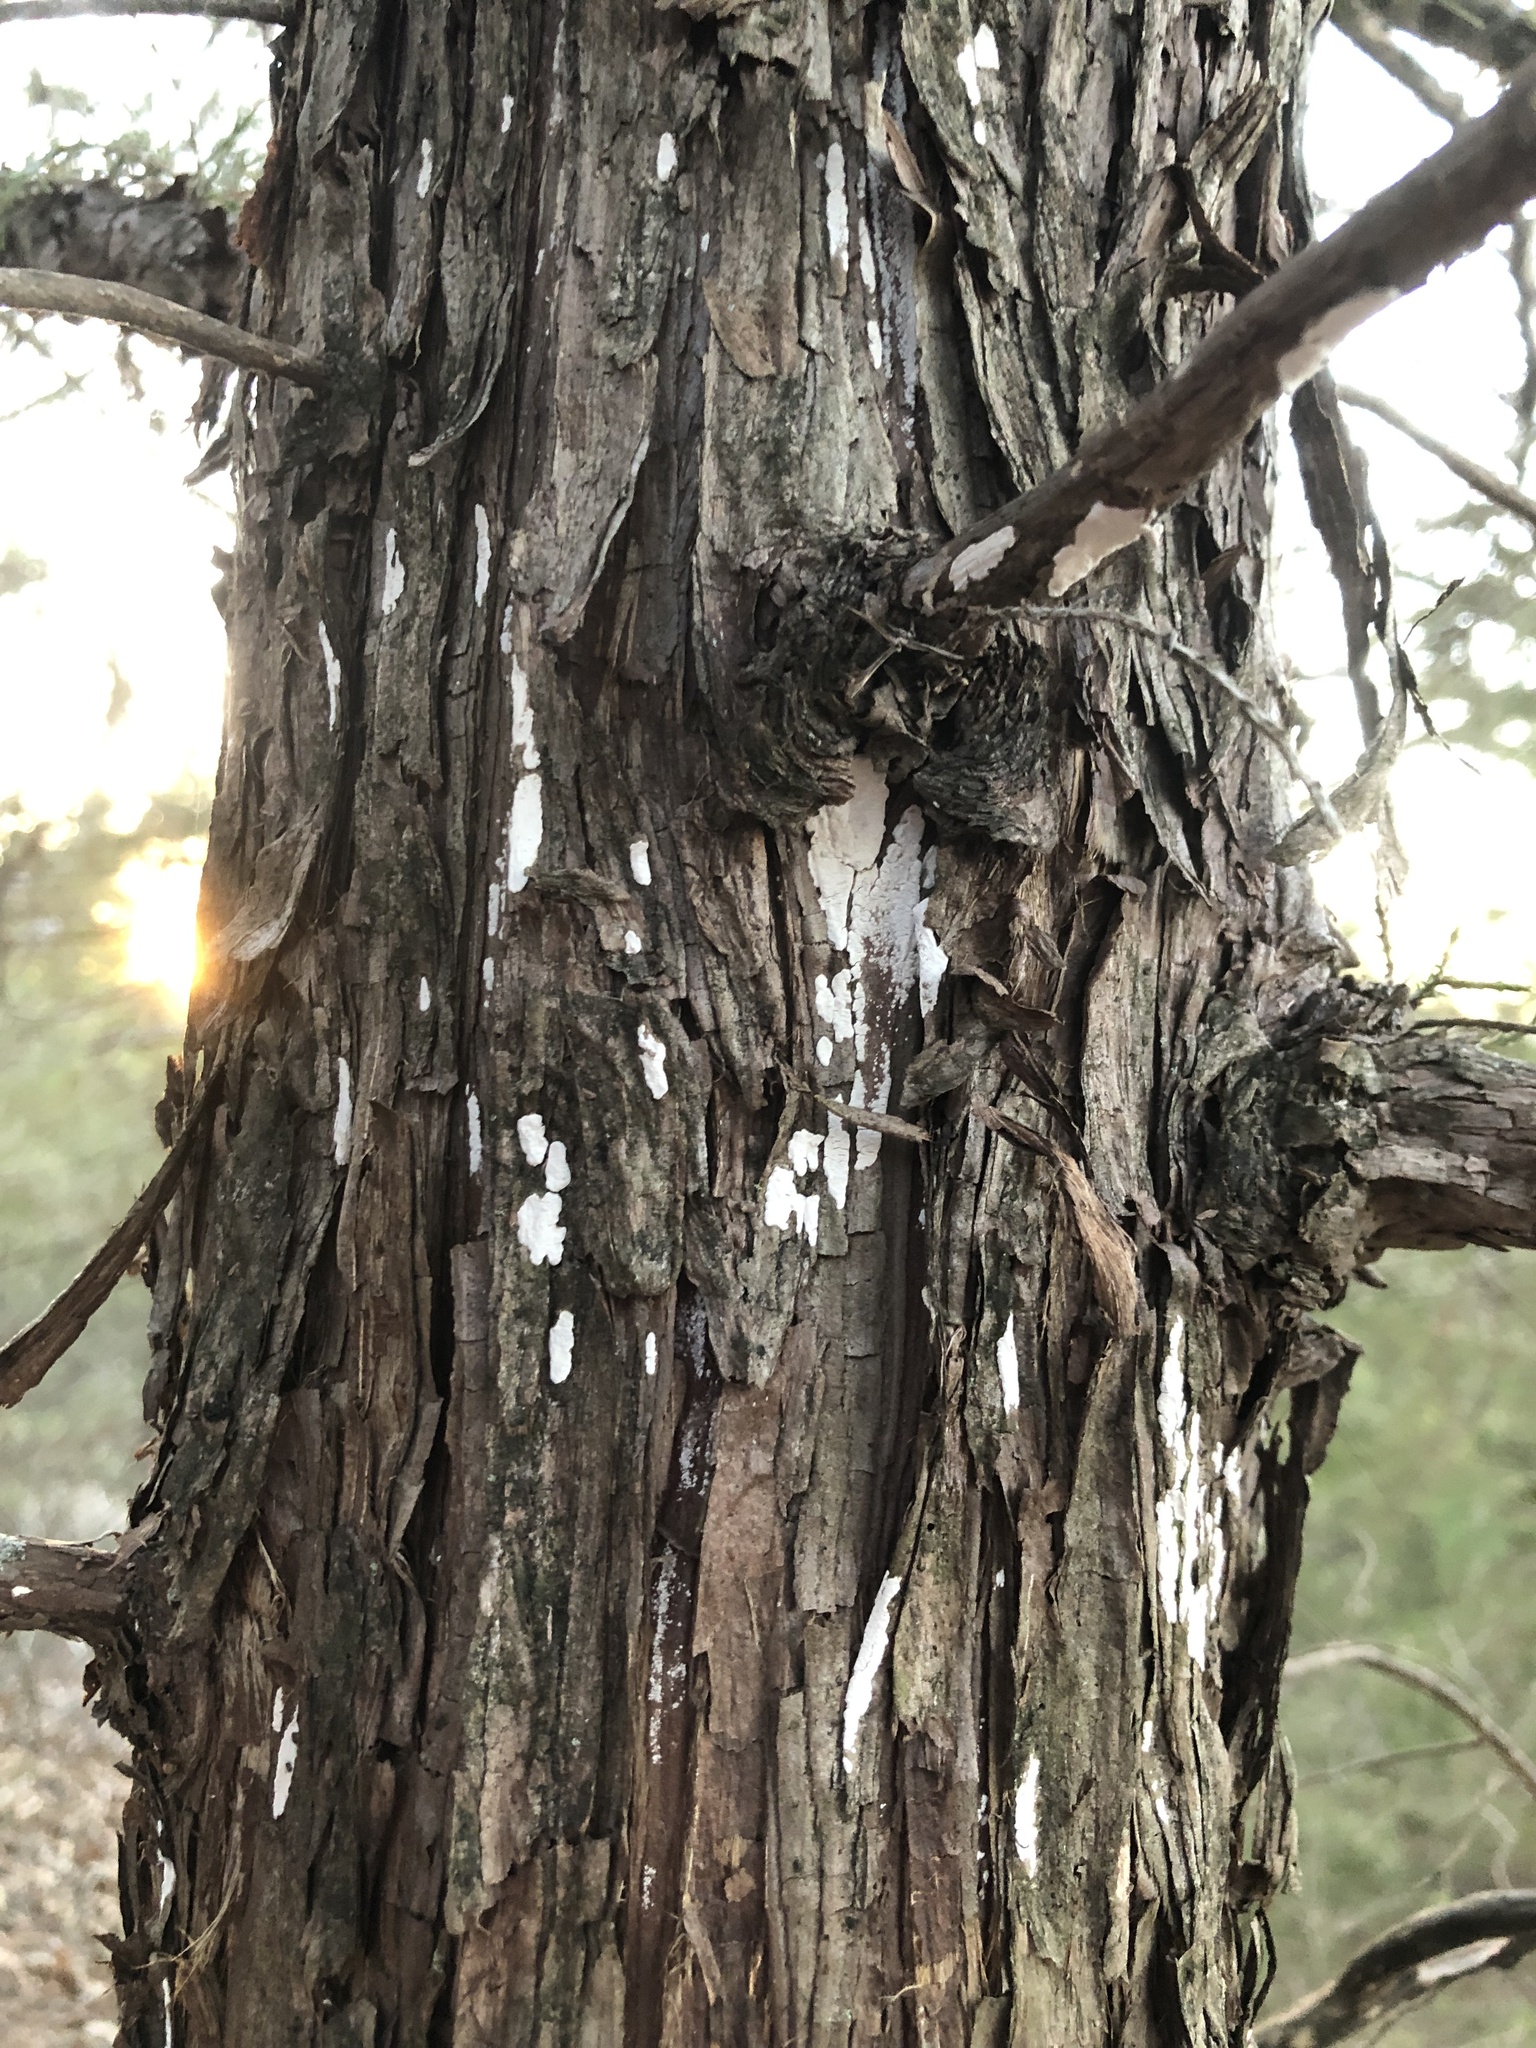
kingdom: Fungi
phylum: Basidiomycota
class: Agaricomycetes
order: Agaricales
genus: Dendrothele
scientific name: Dendrothele nivosa
